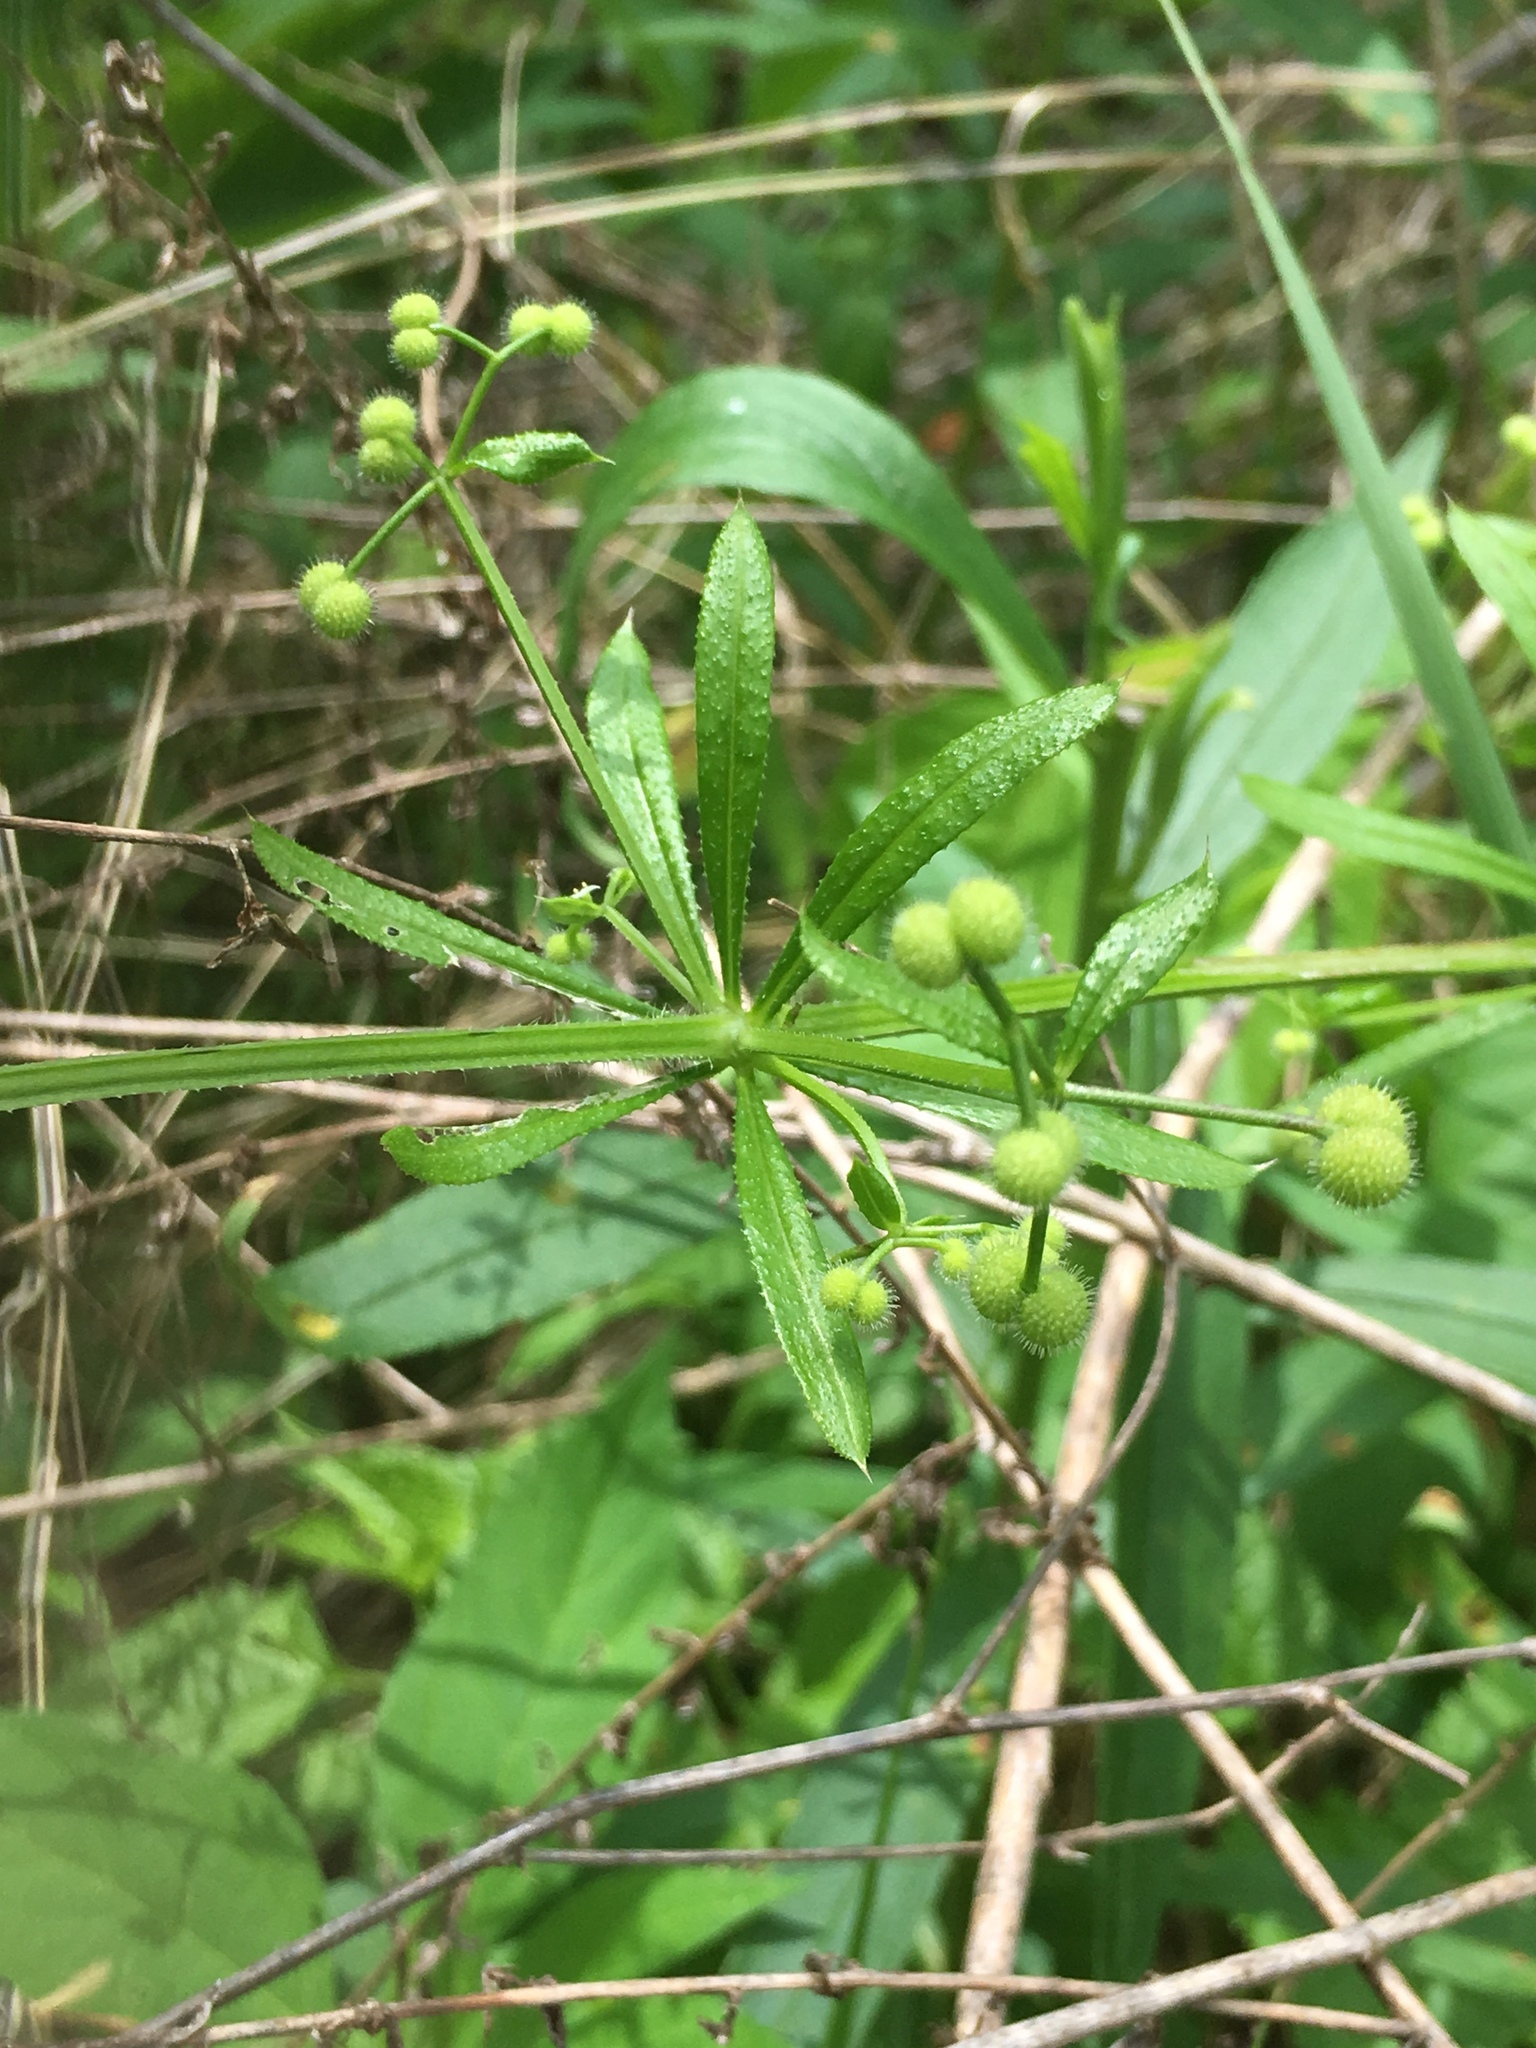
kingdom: Plantae
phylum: Tracheophyta
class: Magnoliopsida
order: Gentianales
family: Rubiaceae
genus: Galium
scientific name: Galium aparine
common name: Cleavers
